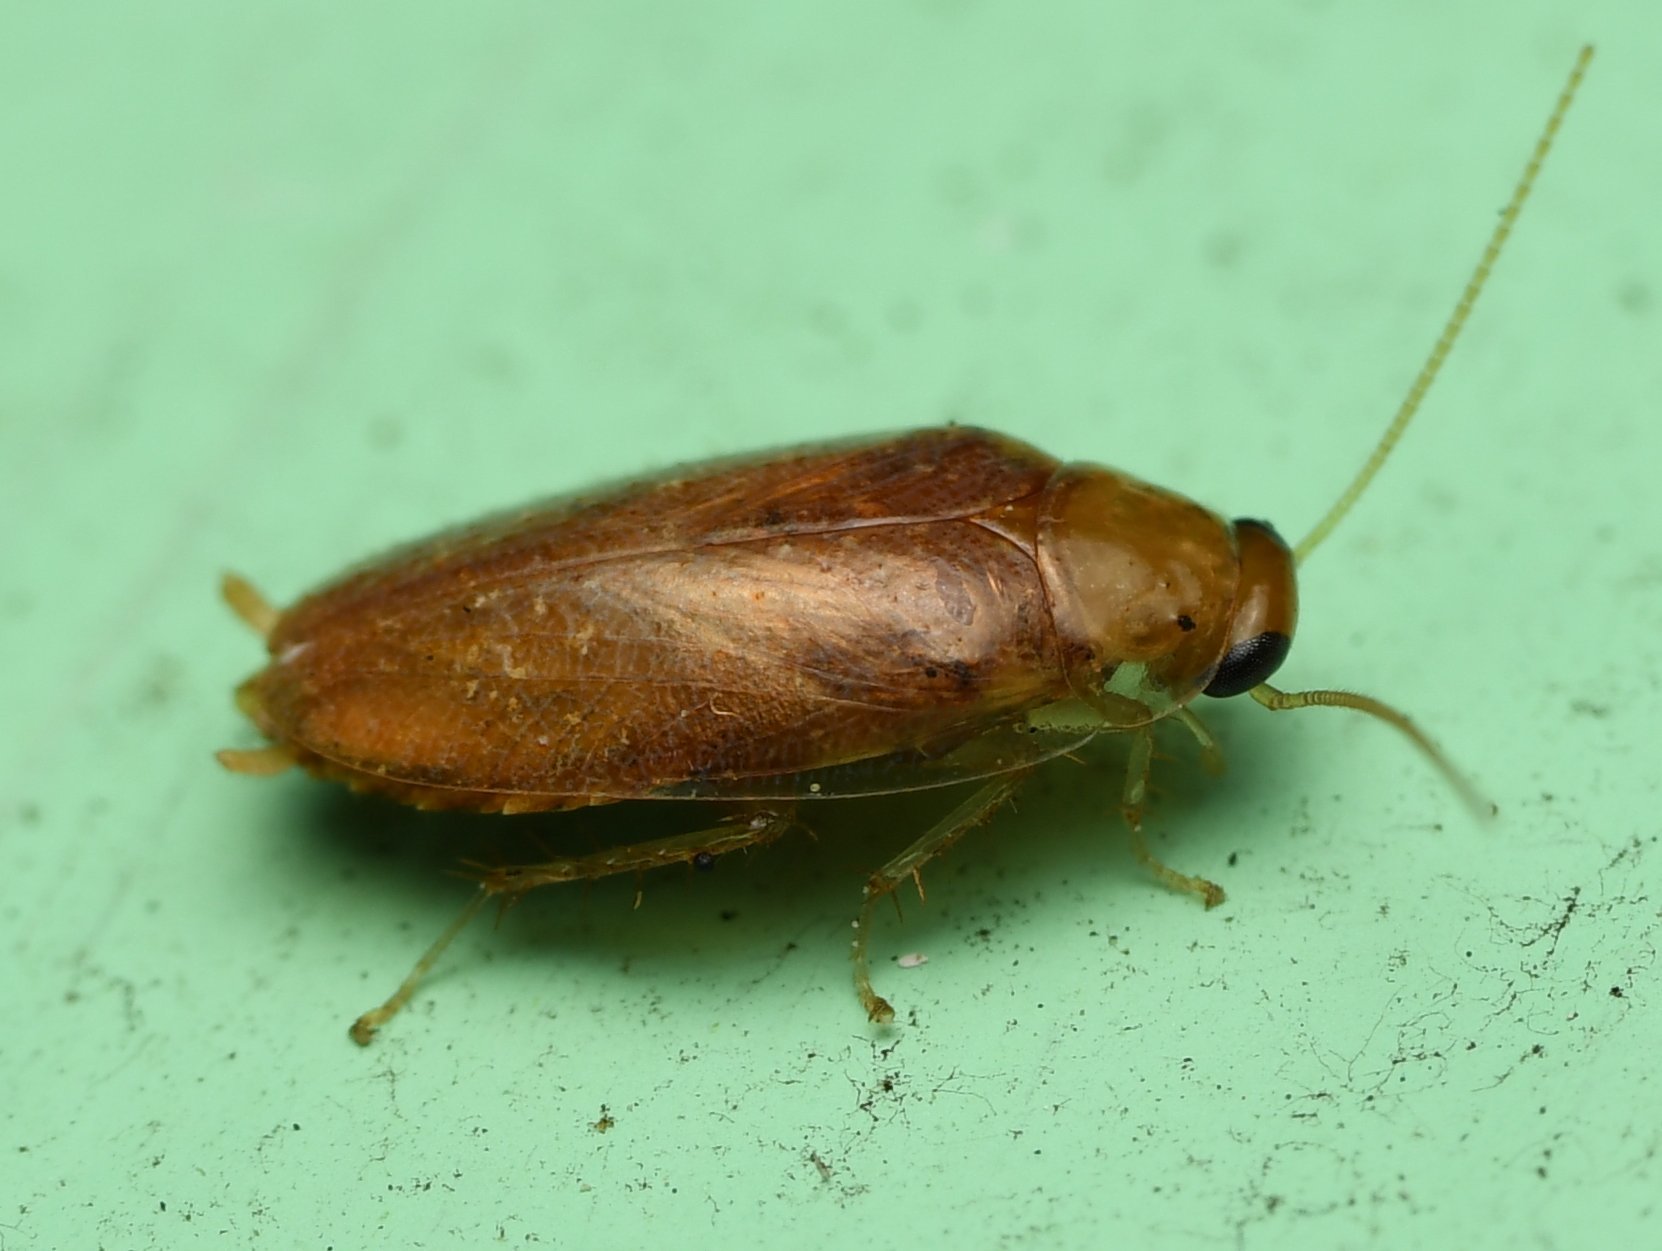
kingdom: Animalia
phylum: Arthropoda
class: Insecta
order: Blattodea
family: Ectobiidae
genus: Plectoptera
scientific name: Plectoptera poeyi
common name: Florida beetle cockroach
